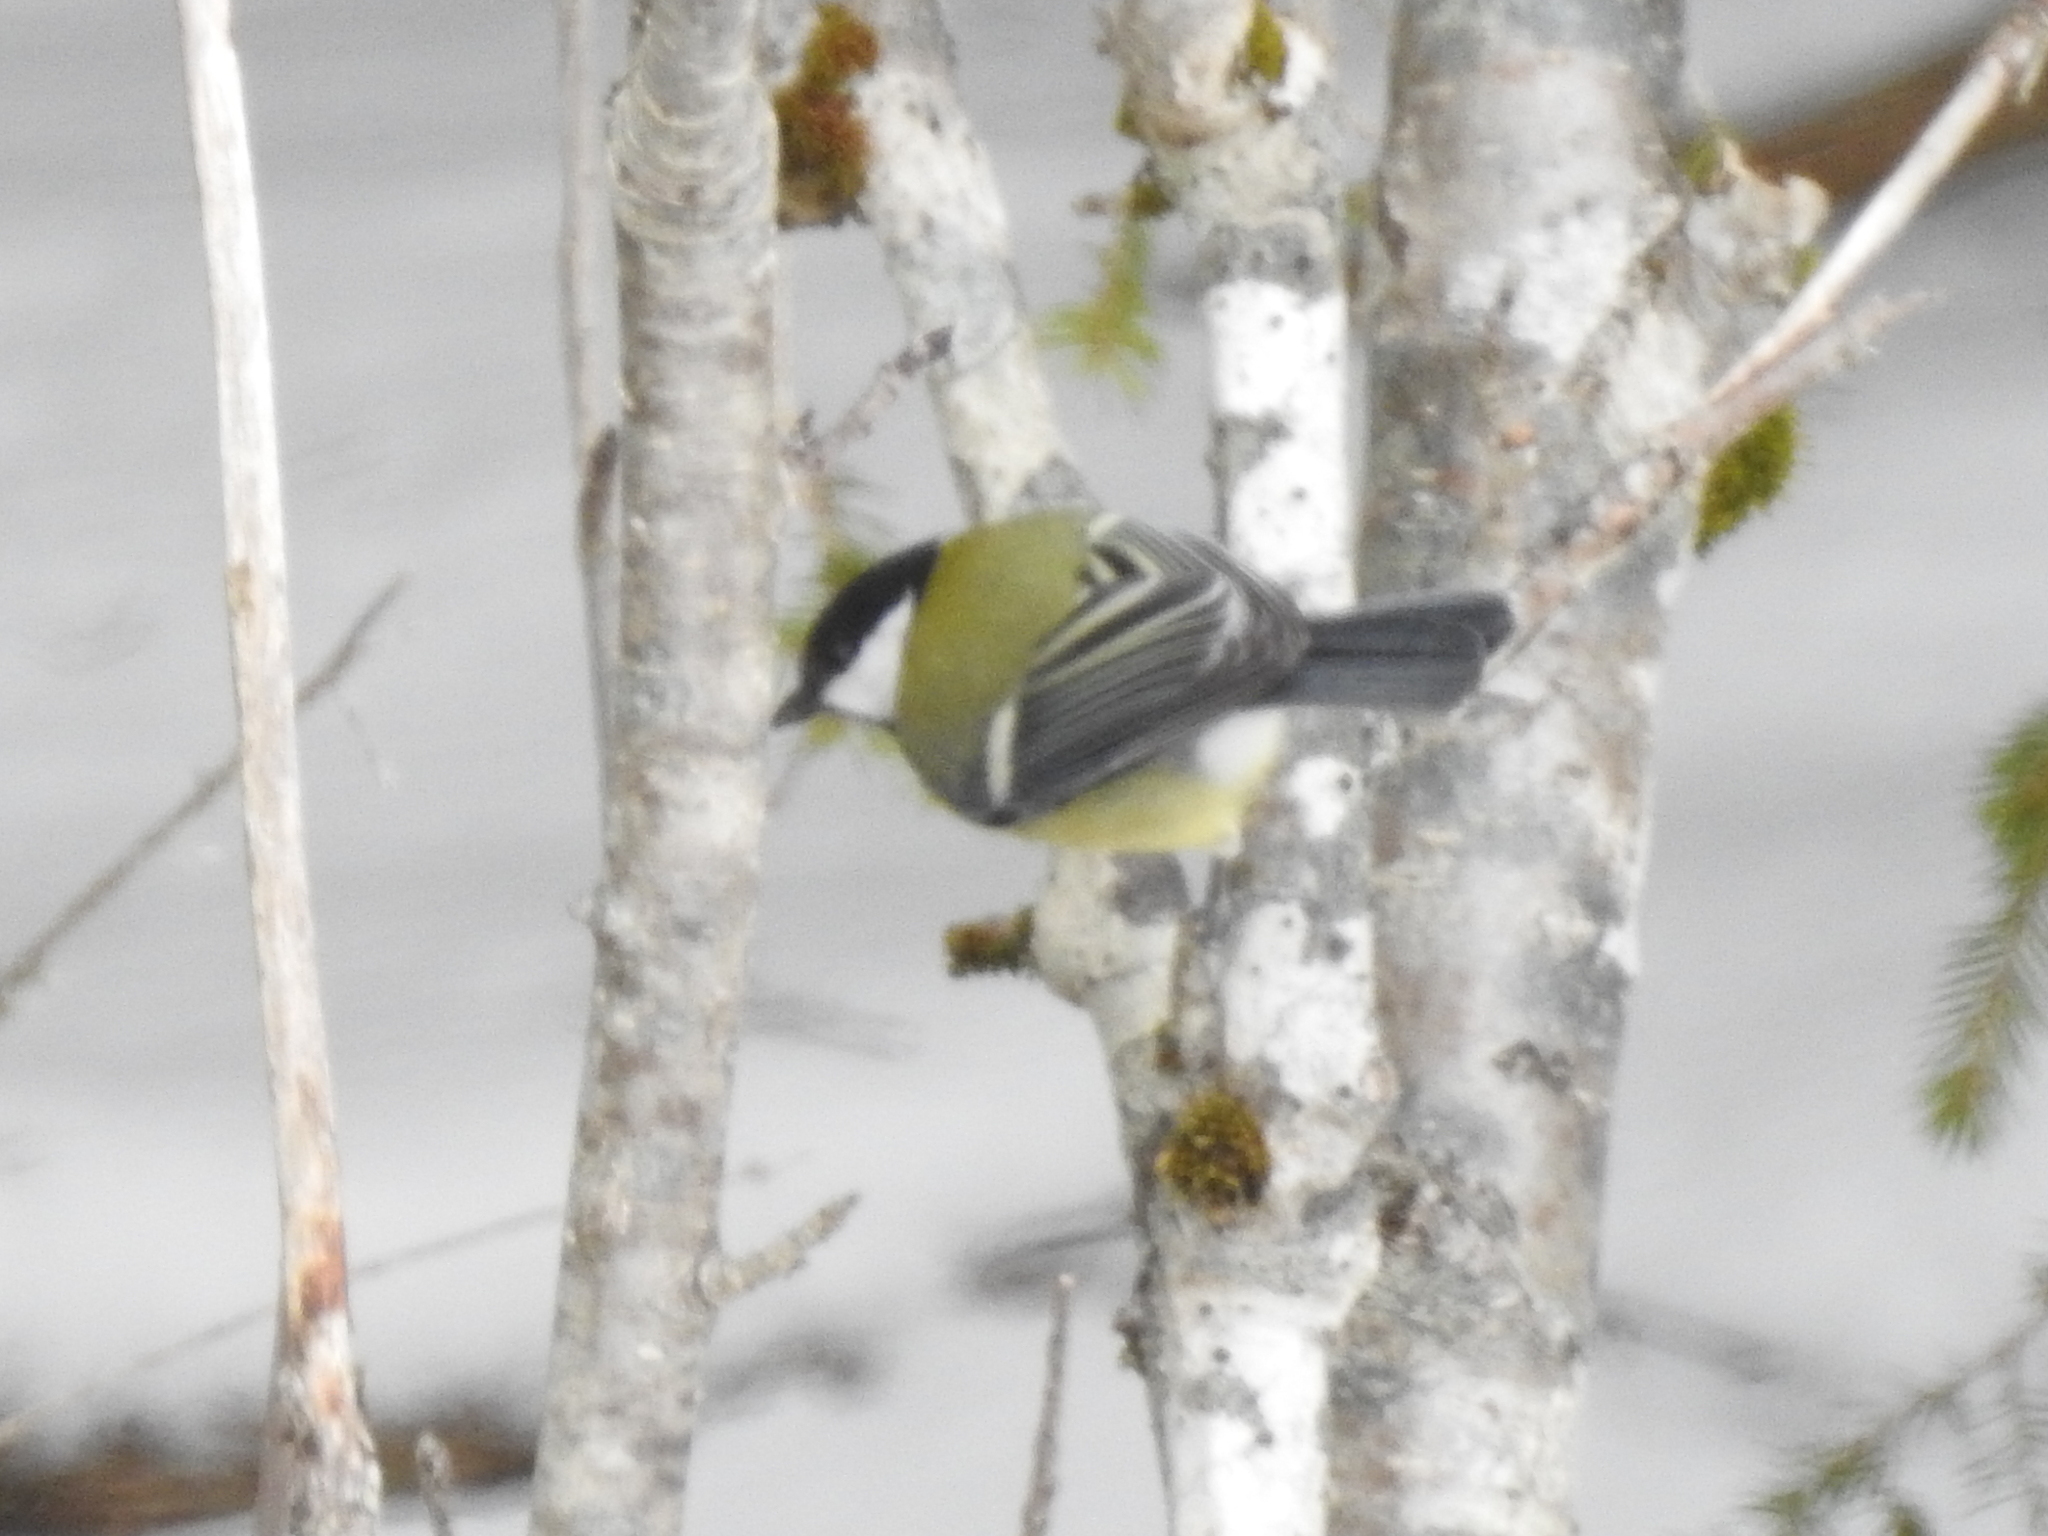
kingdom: Animalia
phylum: Chordata
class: Aves
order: Passeriformes
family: Paridae
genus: Parus
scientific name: Parus major
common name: Great tit
